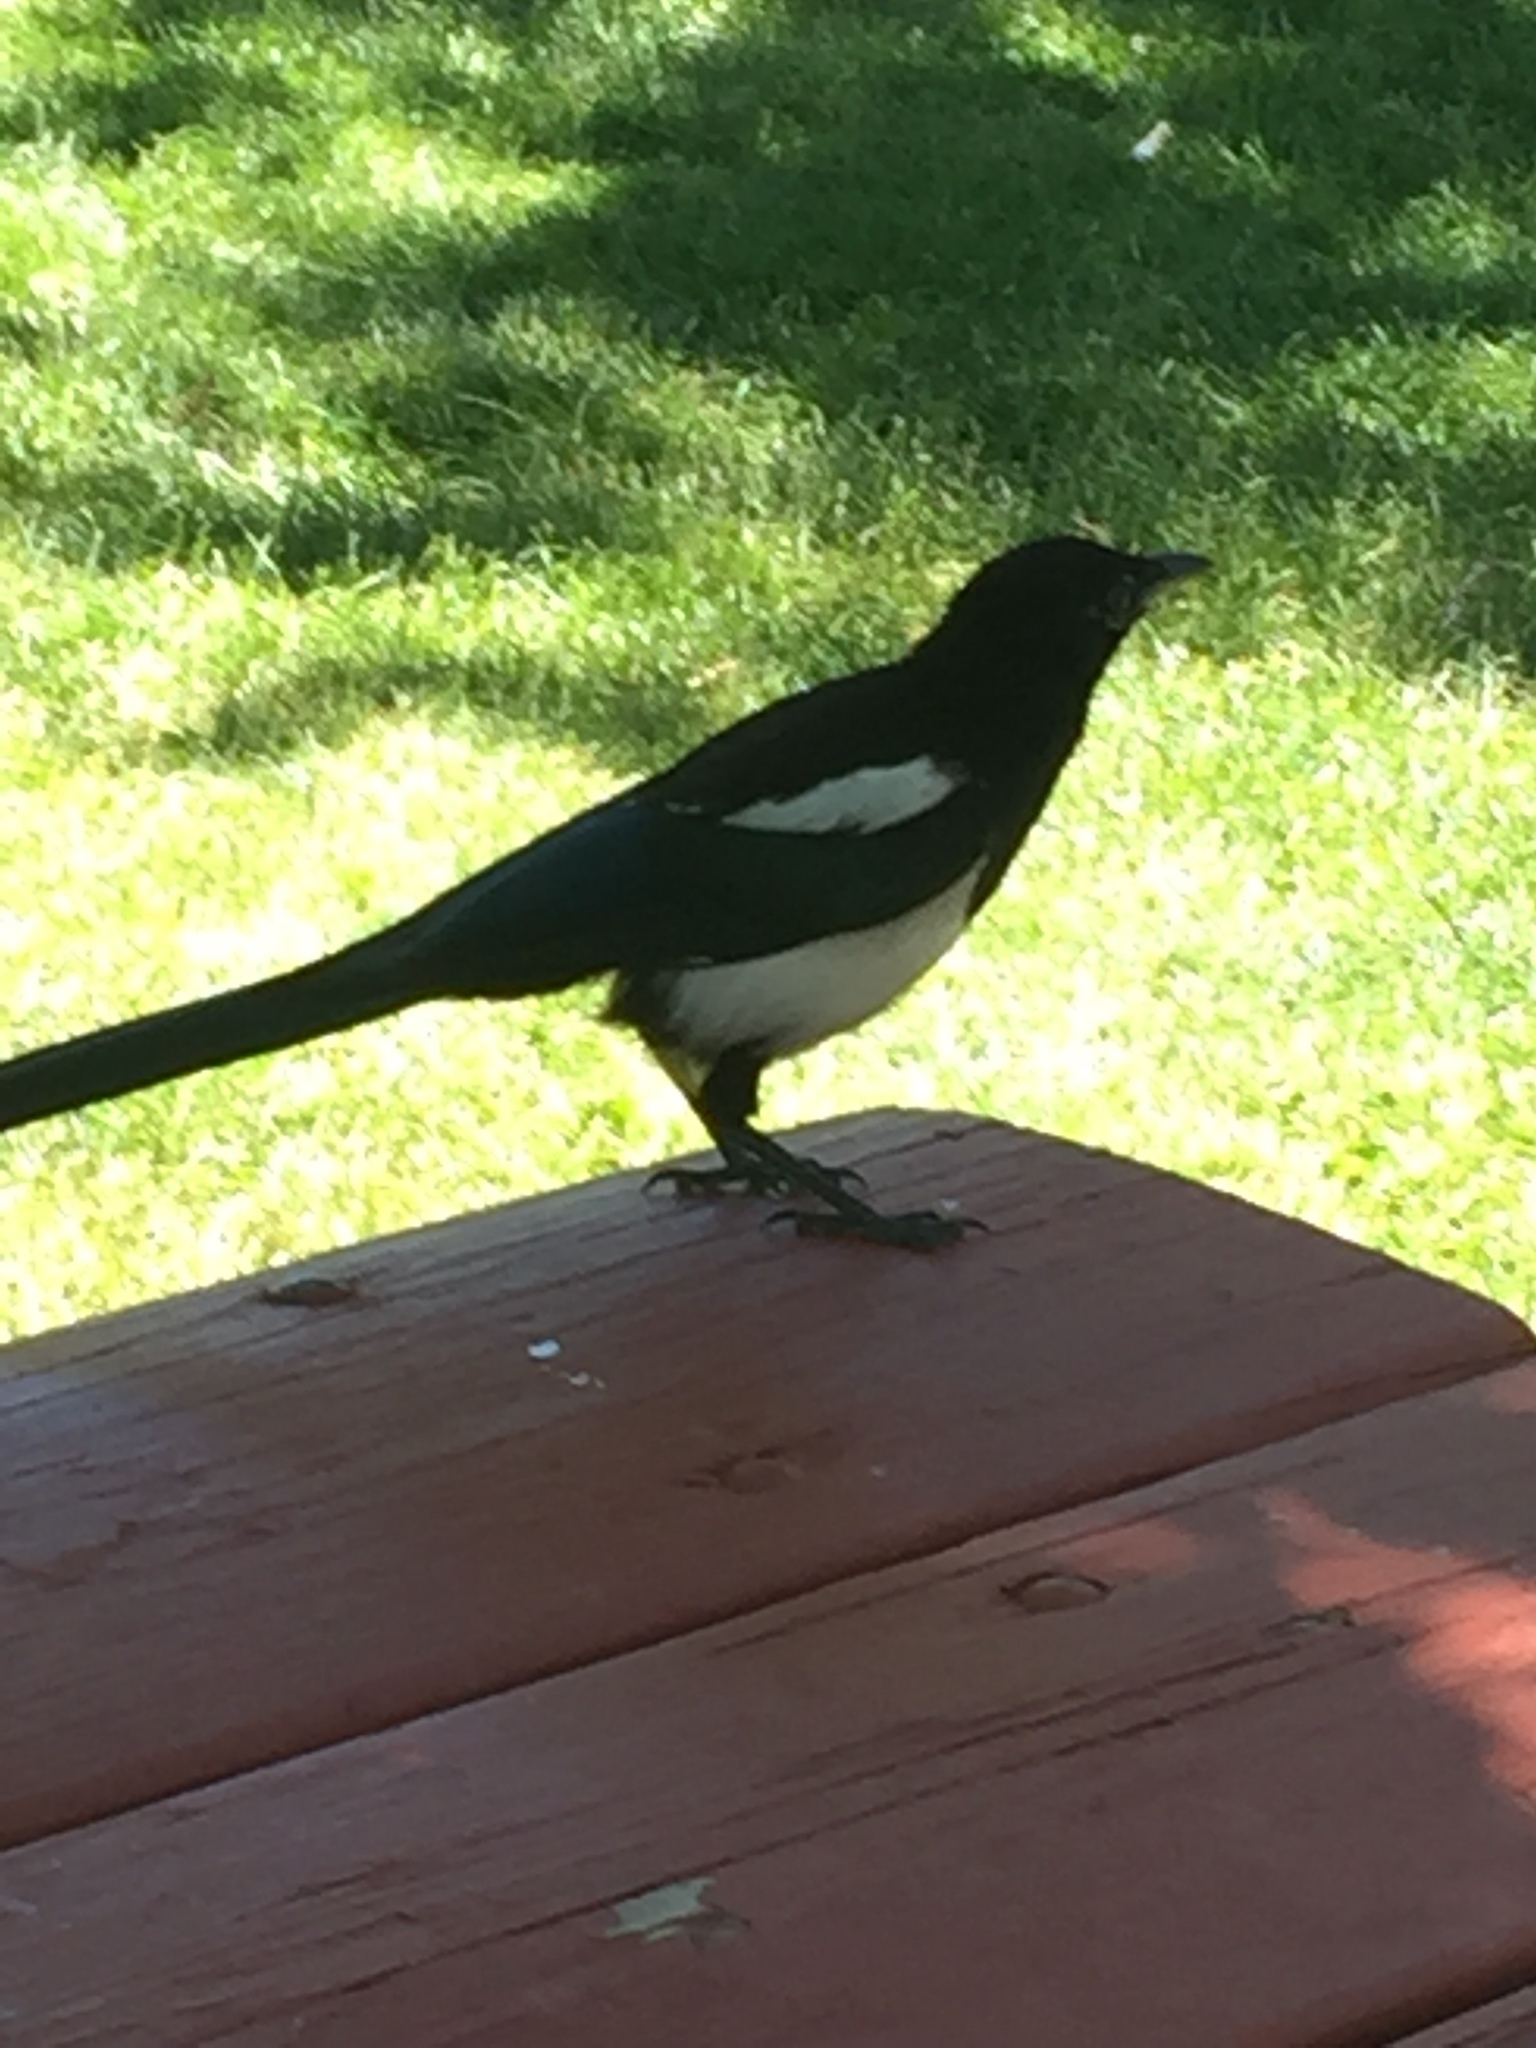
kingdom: Animalia
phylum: Chordata
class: Aves
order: Passeriformes
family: Corvidae
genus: Pica
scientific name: Pica hudsonia
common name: Black-billed magpie
